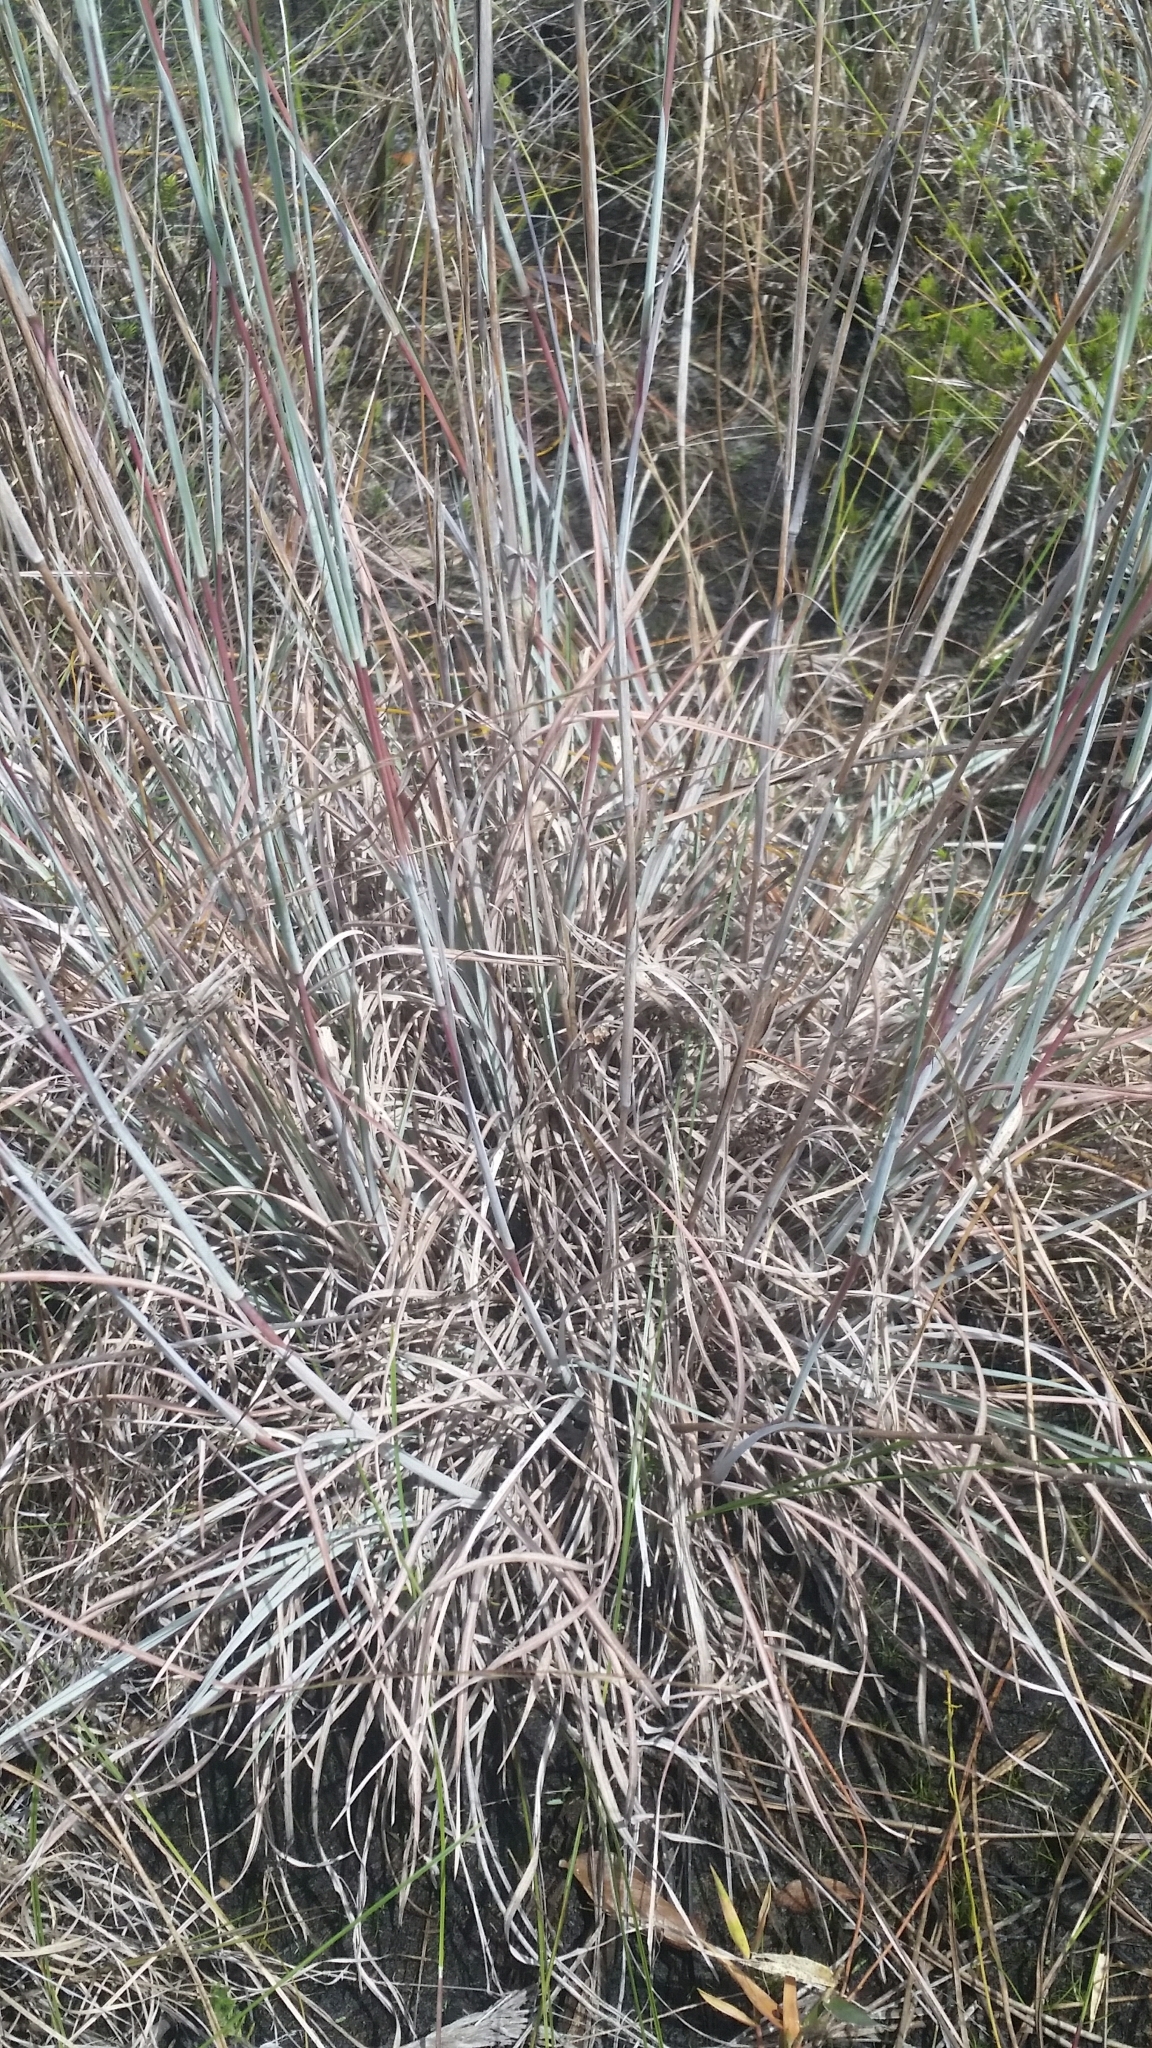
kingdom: Plantae
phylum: Tracheophyta
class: Liliopsida
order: Poales
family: Poaceae
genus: Andropogon
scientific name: Andropogon capillipes
